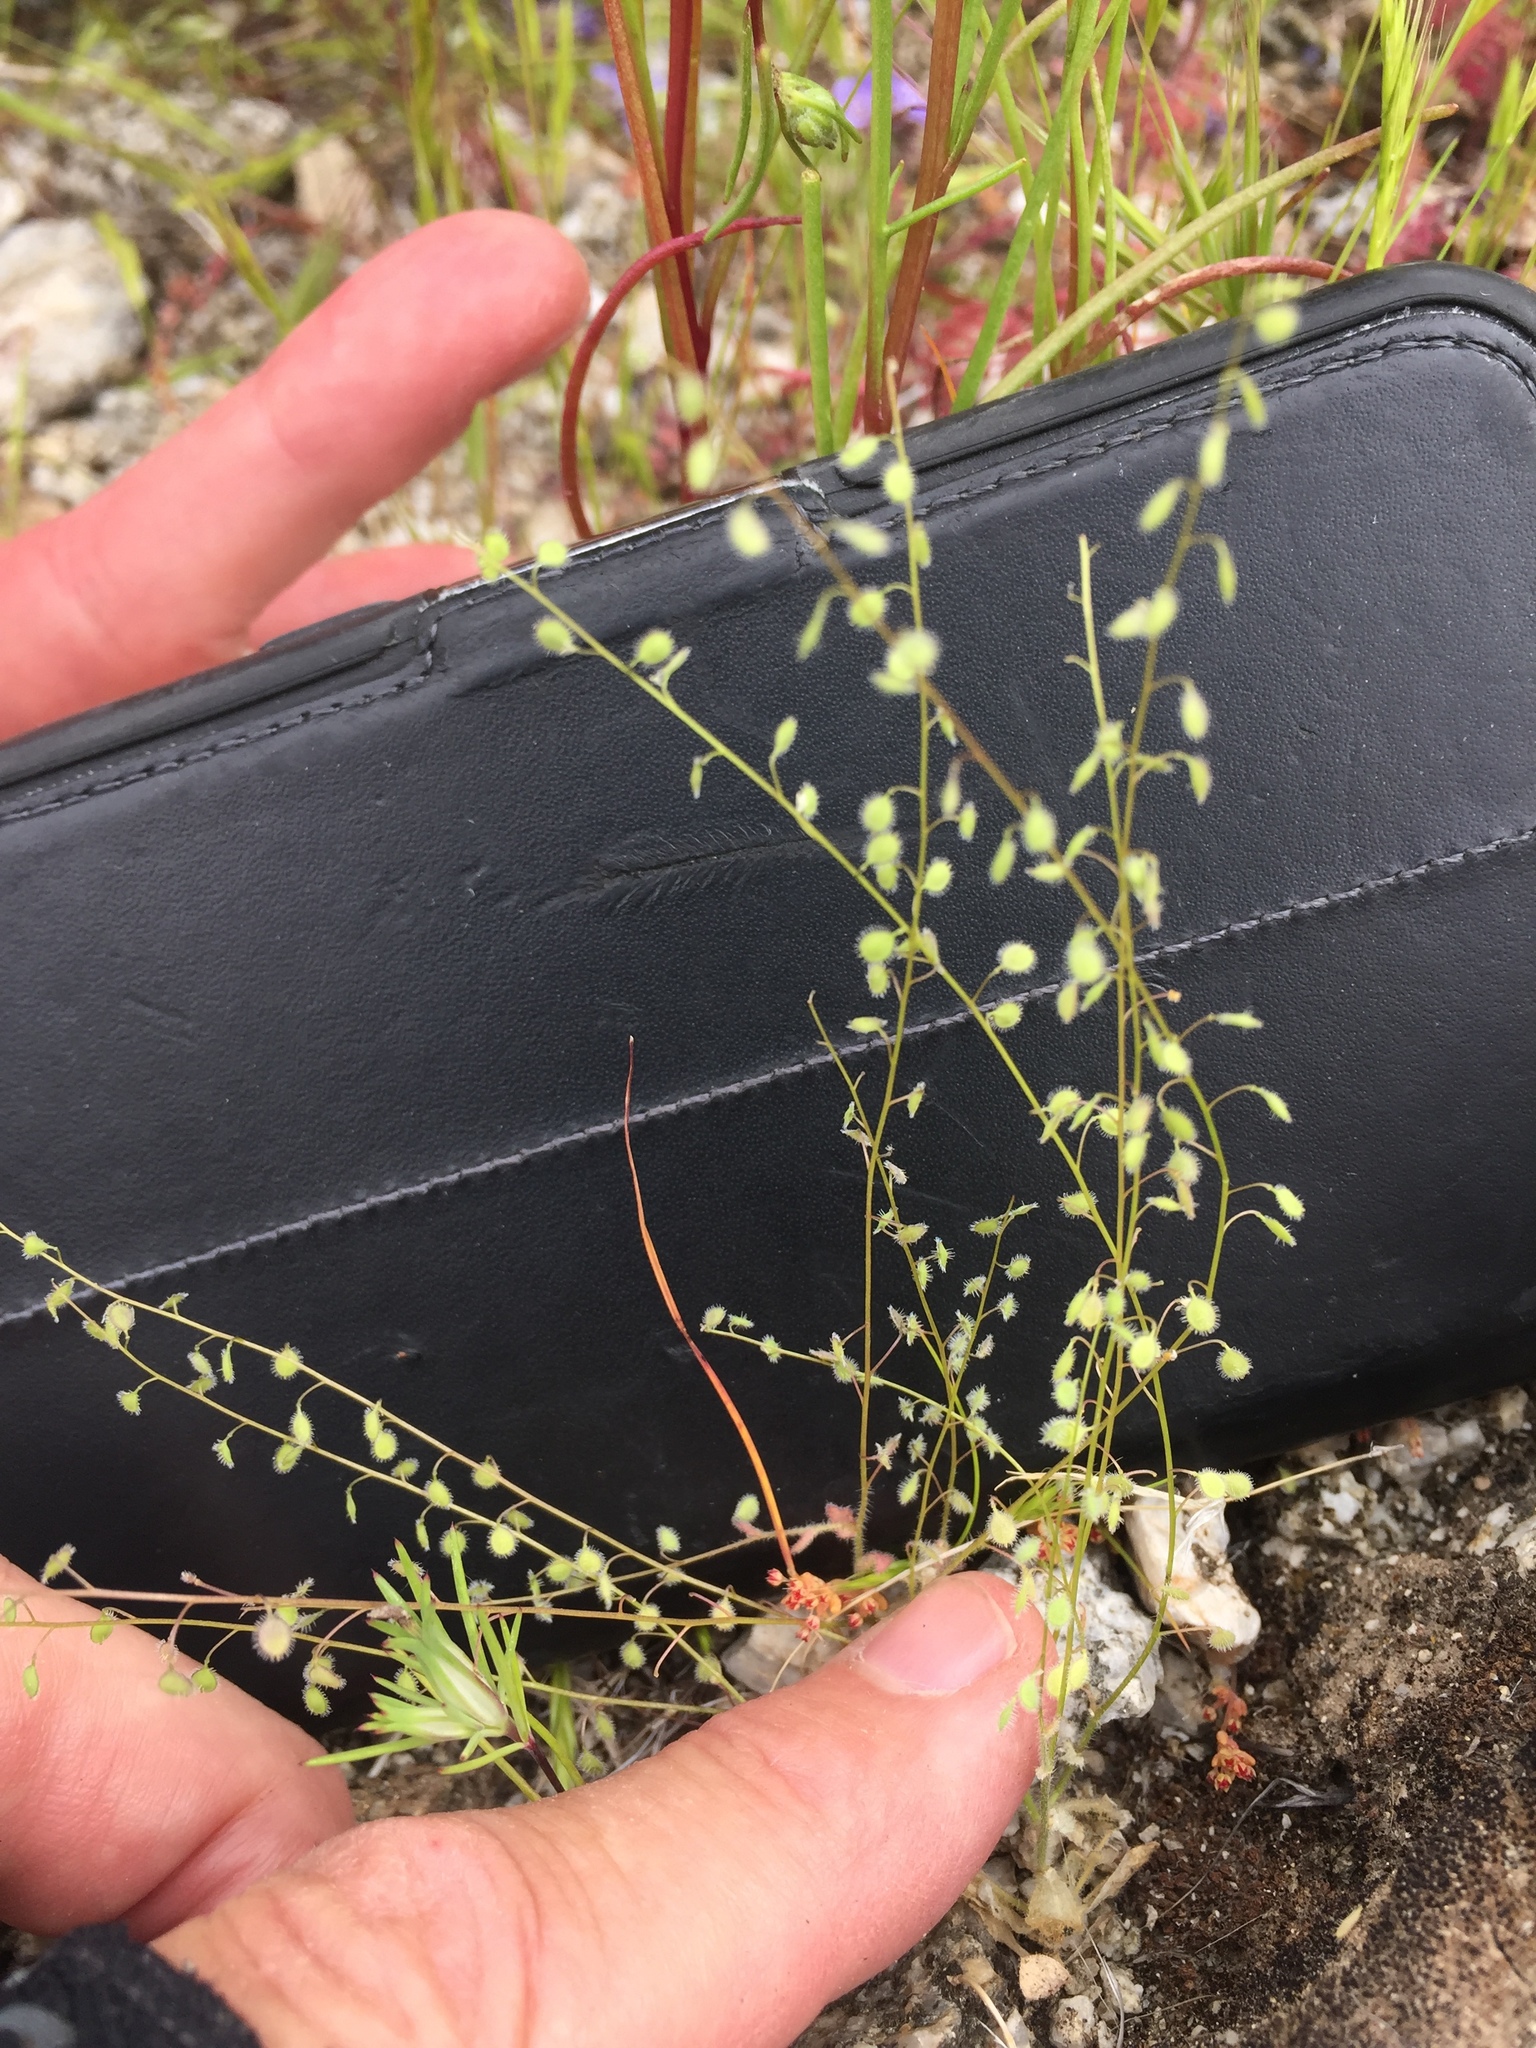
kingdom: Plantae
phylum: Tracheophyta
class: Magnoliopsida
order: Brassicales
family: Brassicaceae
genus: Athysanus
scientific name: Athysanus pusillus
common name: Common sandweed
